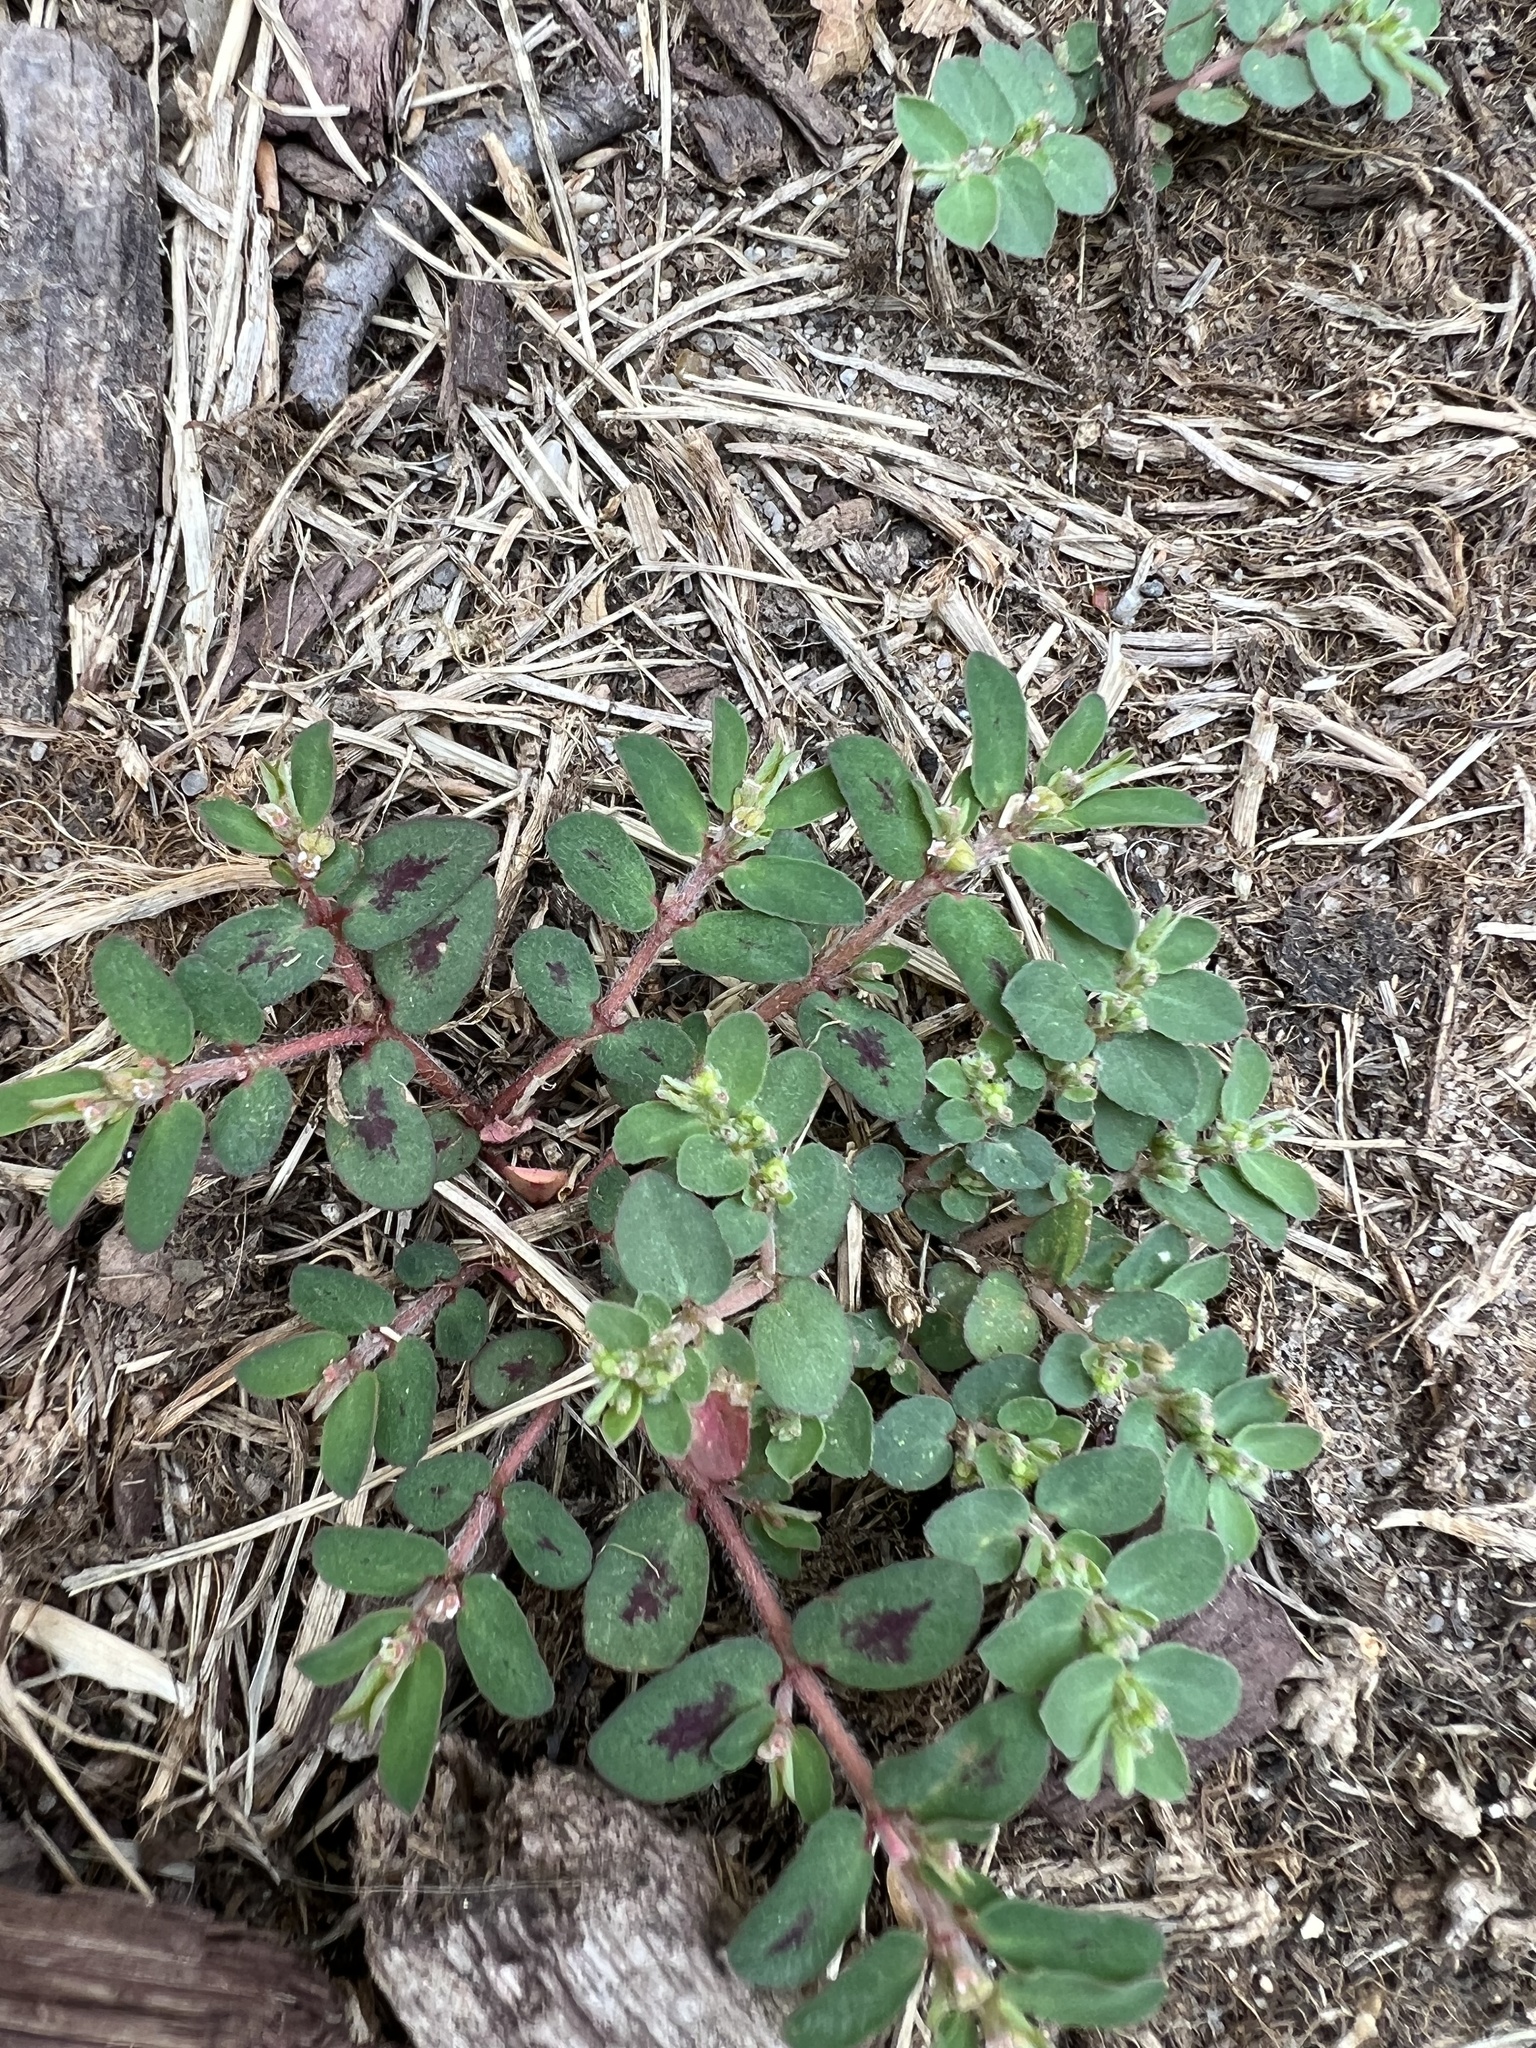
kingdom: Plantae
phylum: Tracheophyta
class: Magnoliopsida
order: Malpighiales
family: Euphorbiaceae
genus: Euphorbia
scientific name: Euphorbia maculata
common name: Spotted spurge
